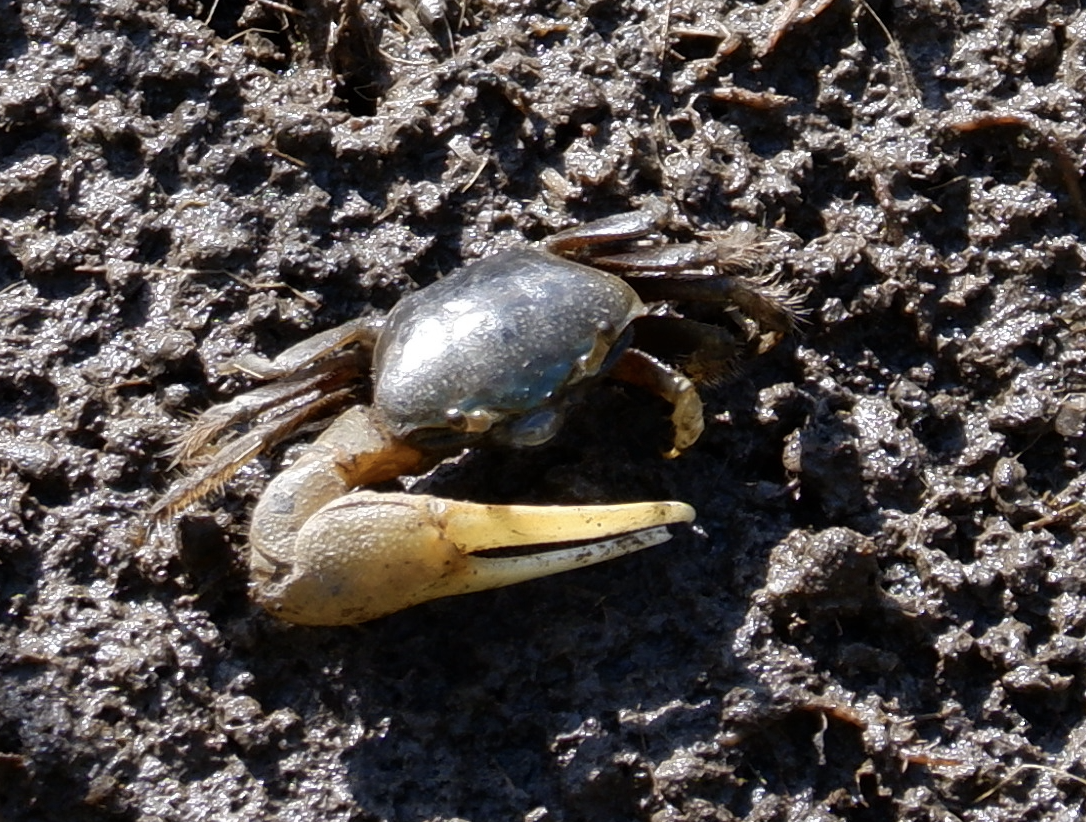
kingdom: Animalia
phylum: Arthropoda
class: Malacostraca
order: Decapoda
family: Ocypodidae
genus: Minuca
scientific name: Minuca pugnax
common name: Mud fiddler crab
